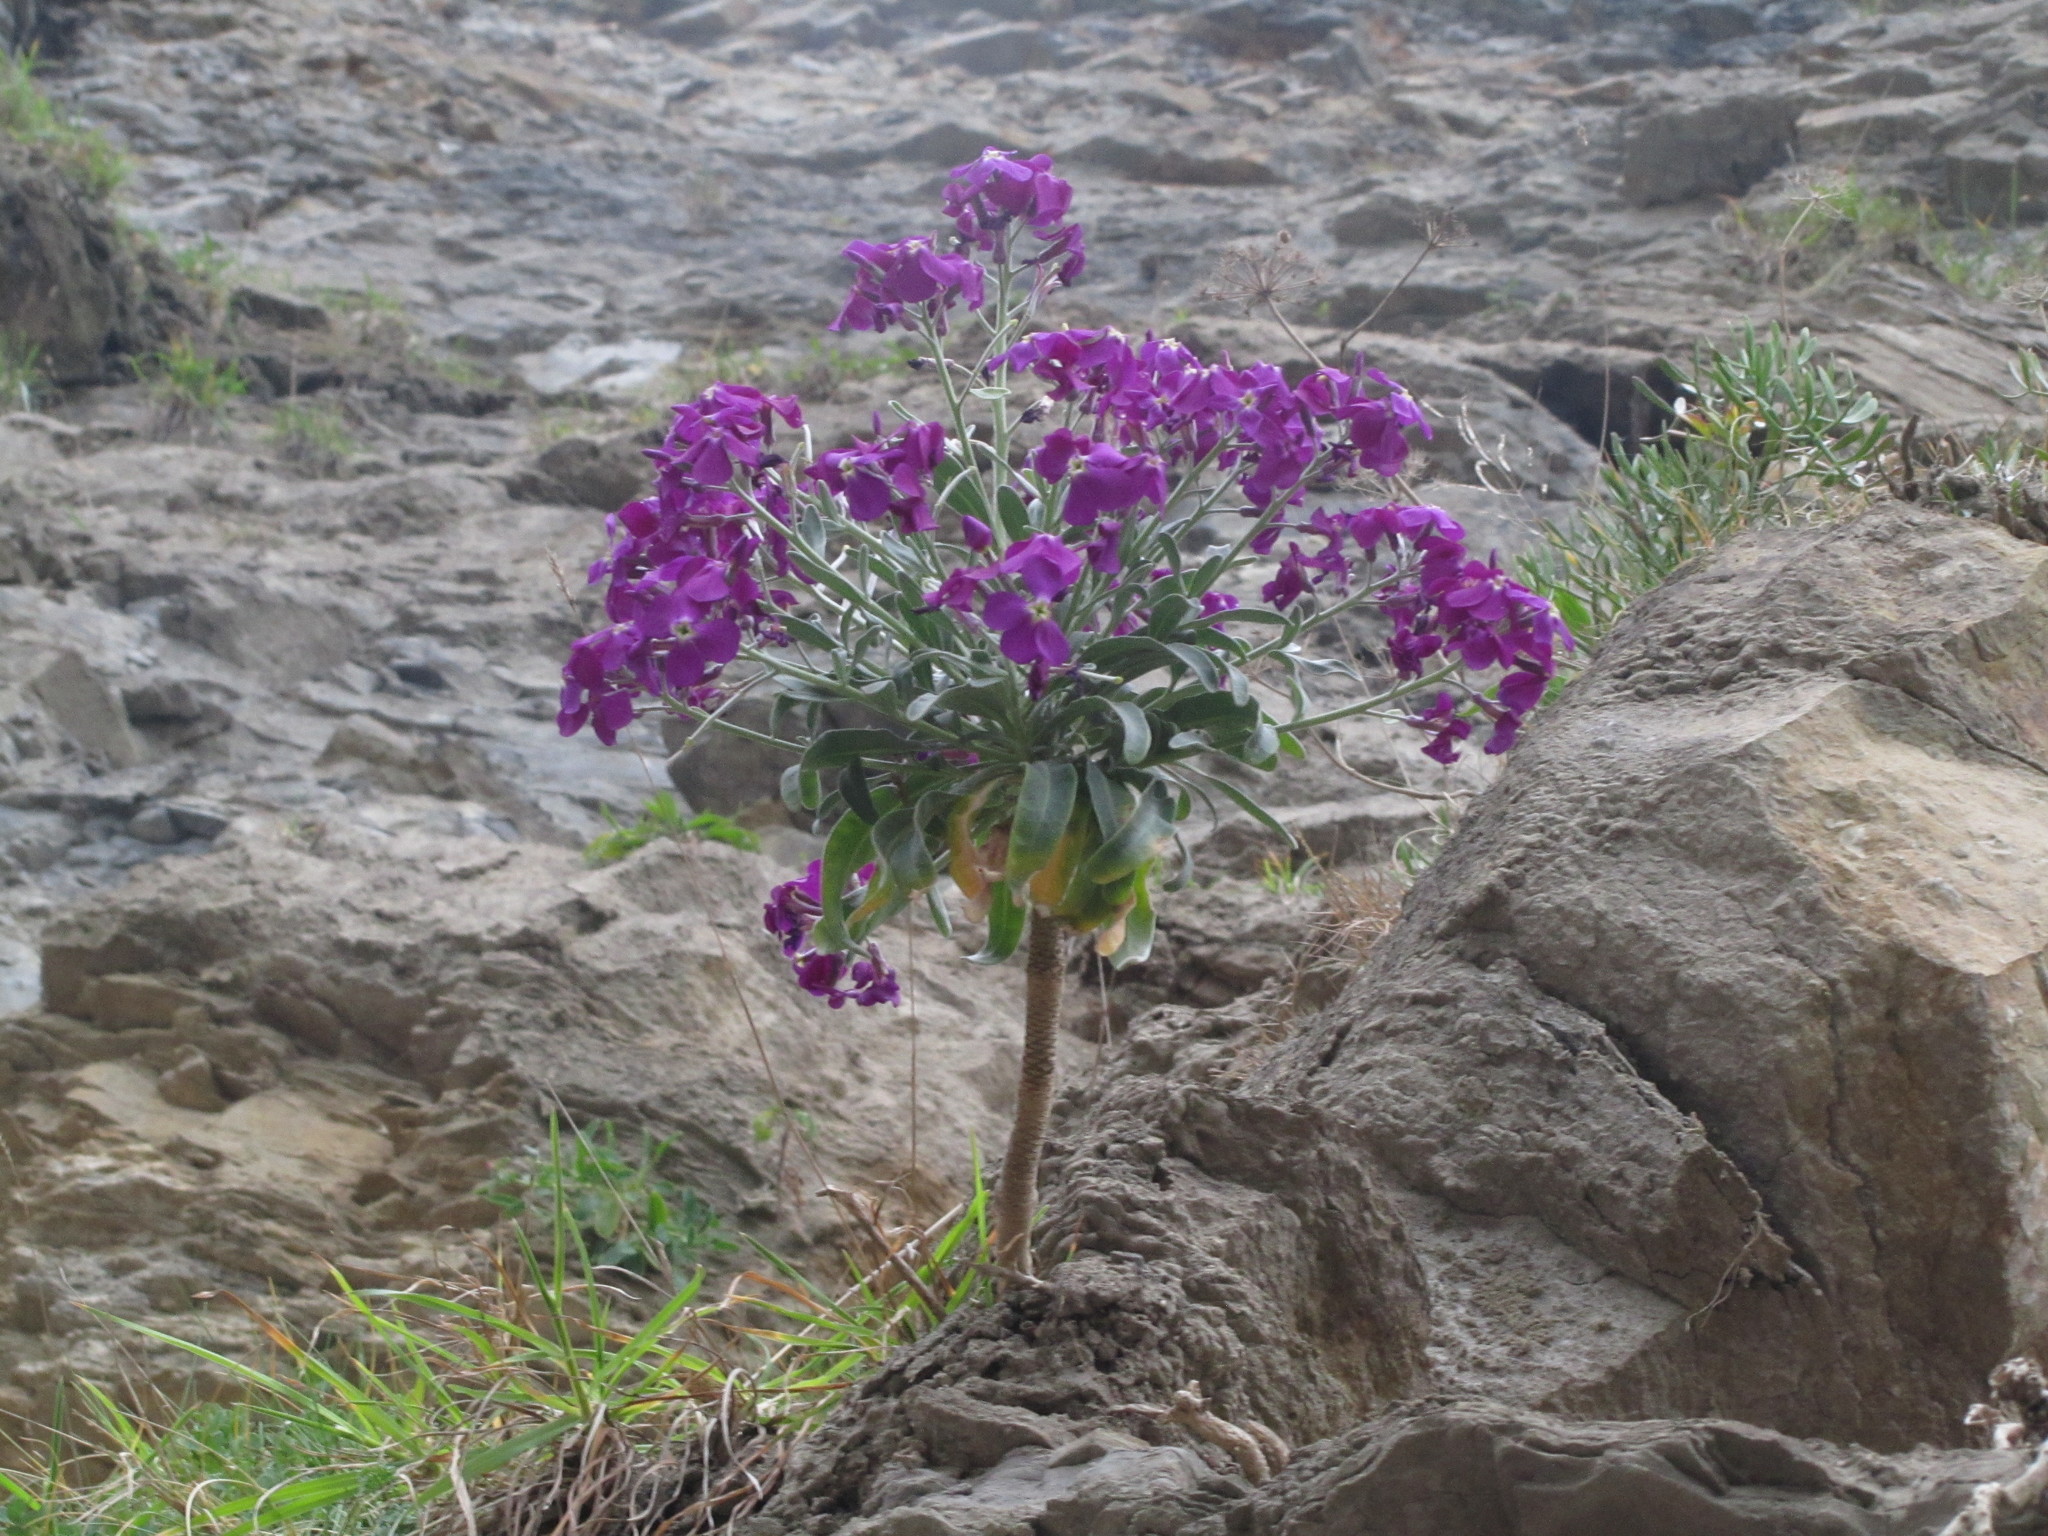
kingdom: Plantae
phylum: Tracheophyta
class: Magnoliopsida
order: Brassicales
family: Brassicaceae
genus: Matthiola
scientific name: Matthiola incana
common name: Hoary stock
